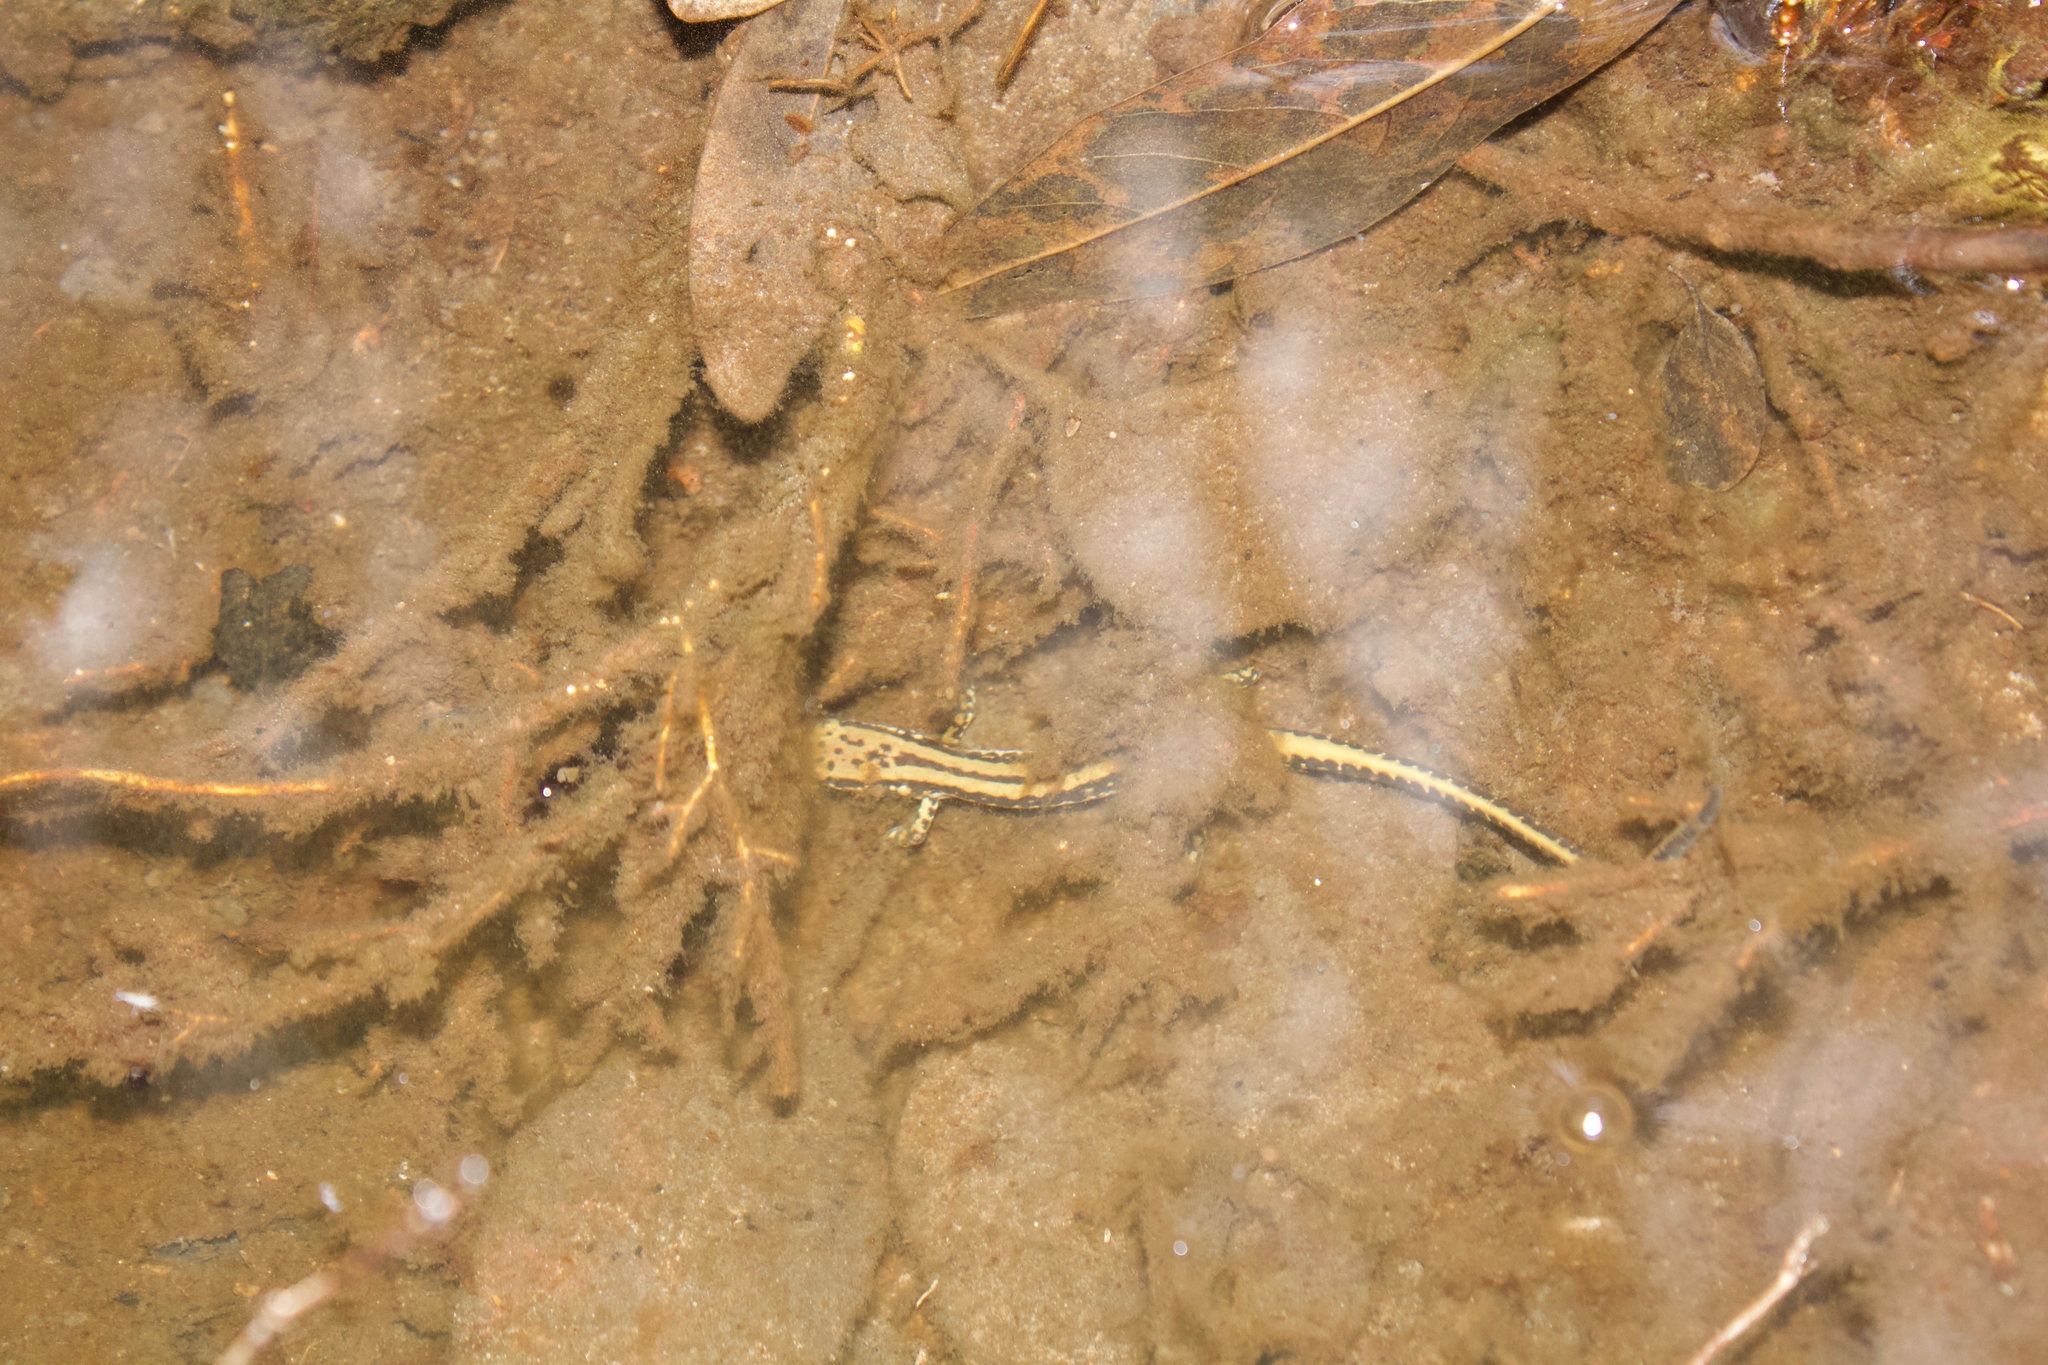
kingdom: Animalia
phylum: Chordata
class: Amphibia
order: Caudata
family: Plethodontidae
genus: Eurycea
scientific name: Eurycea guttolineata
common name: Three-lined salamander
